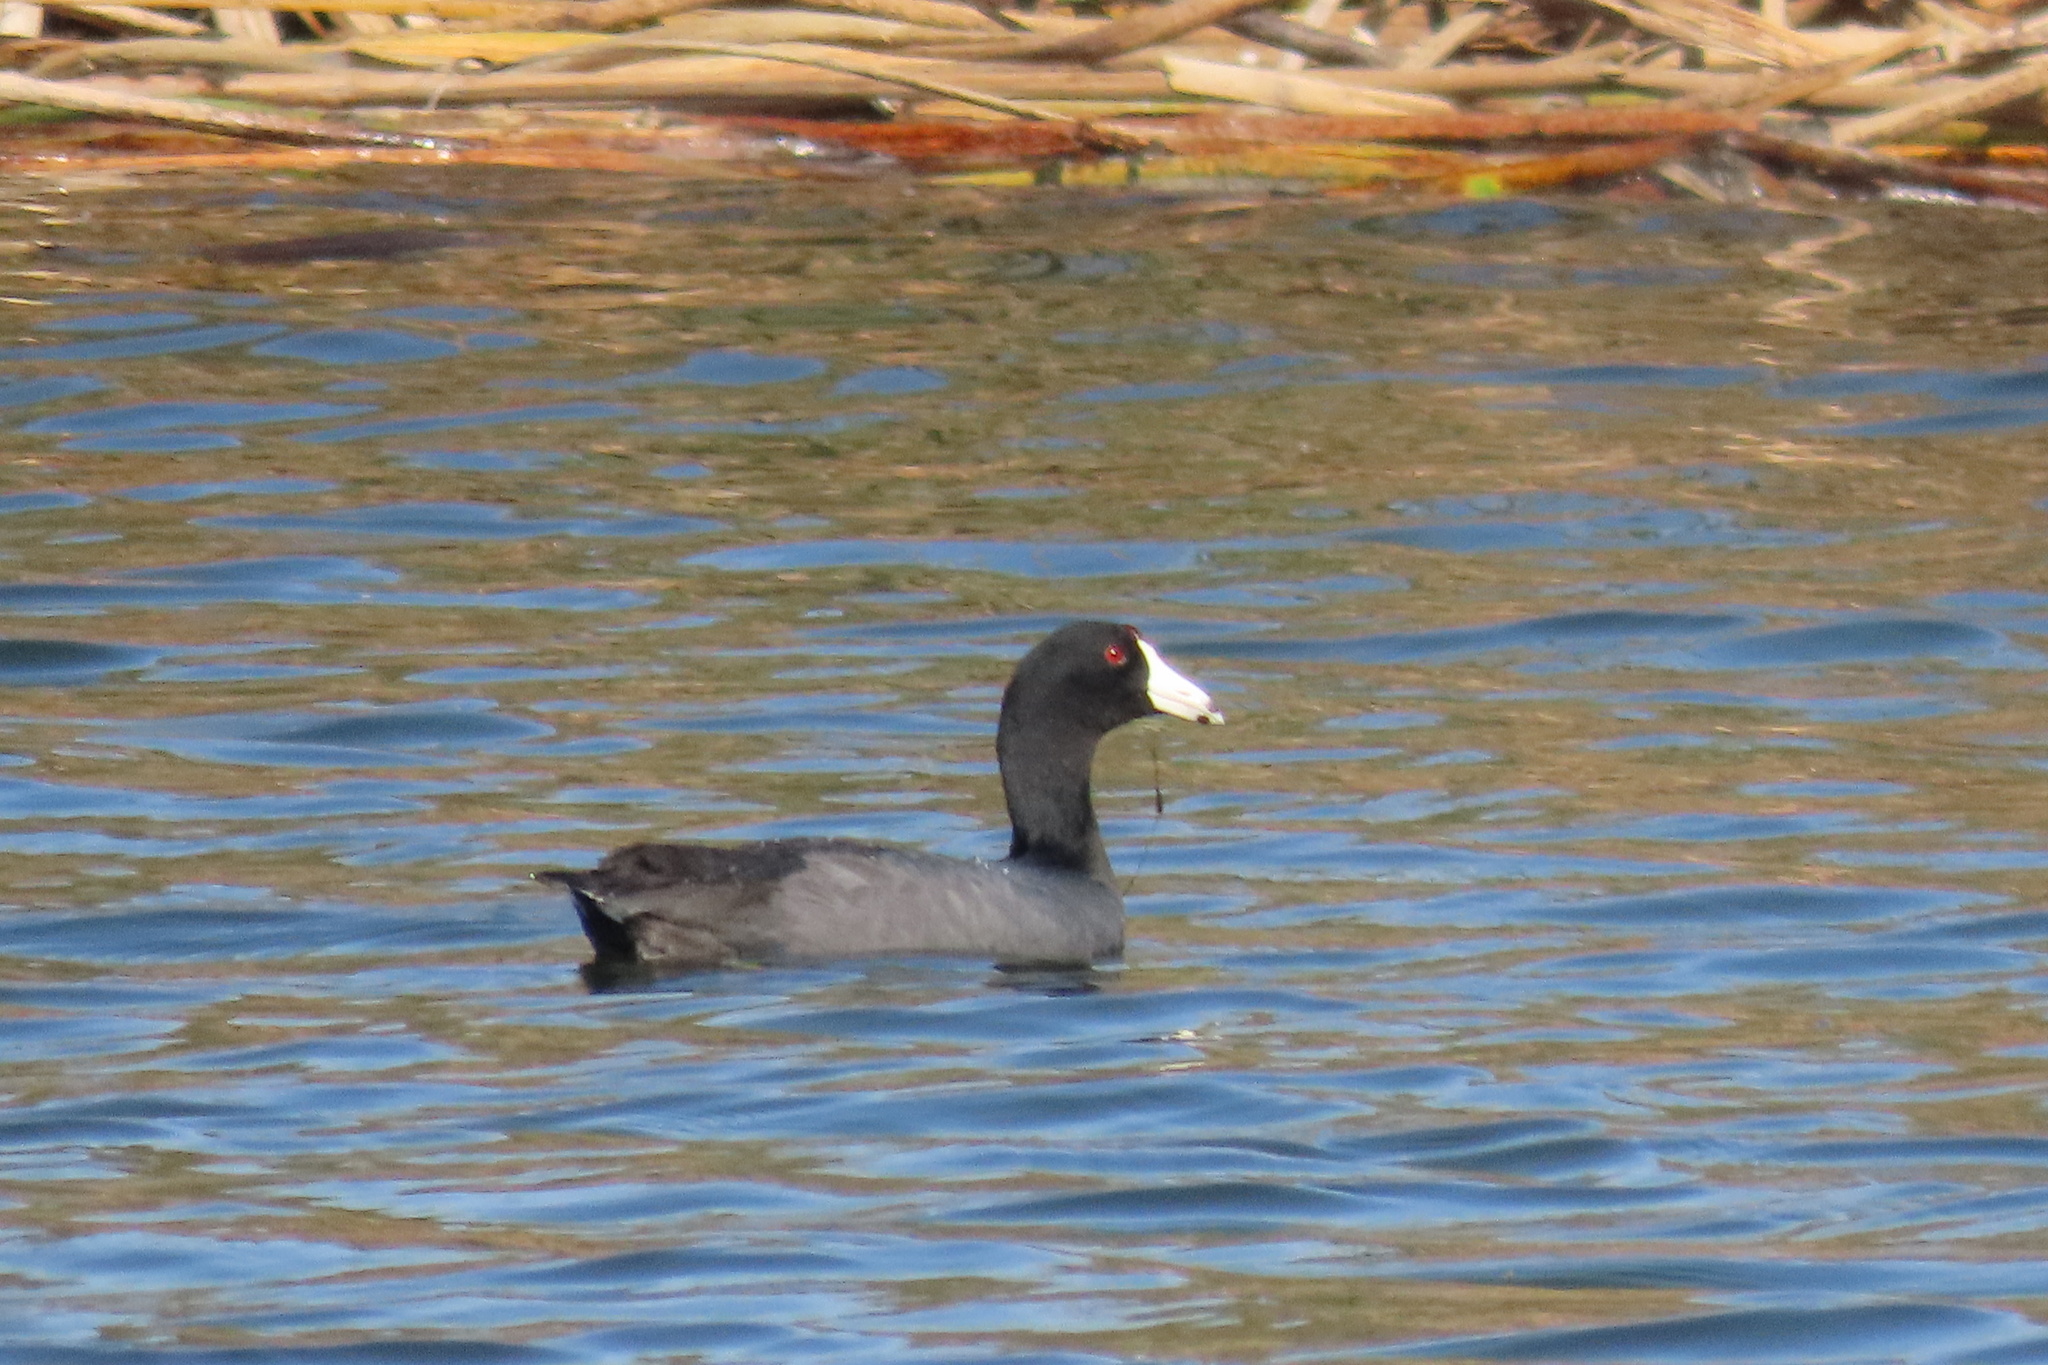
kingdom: Animalia
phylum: Chordata
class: Aves
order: Gruiformes
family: Rallidae
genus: Fulica
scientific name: Fulica americana
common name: American coot
